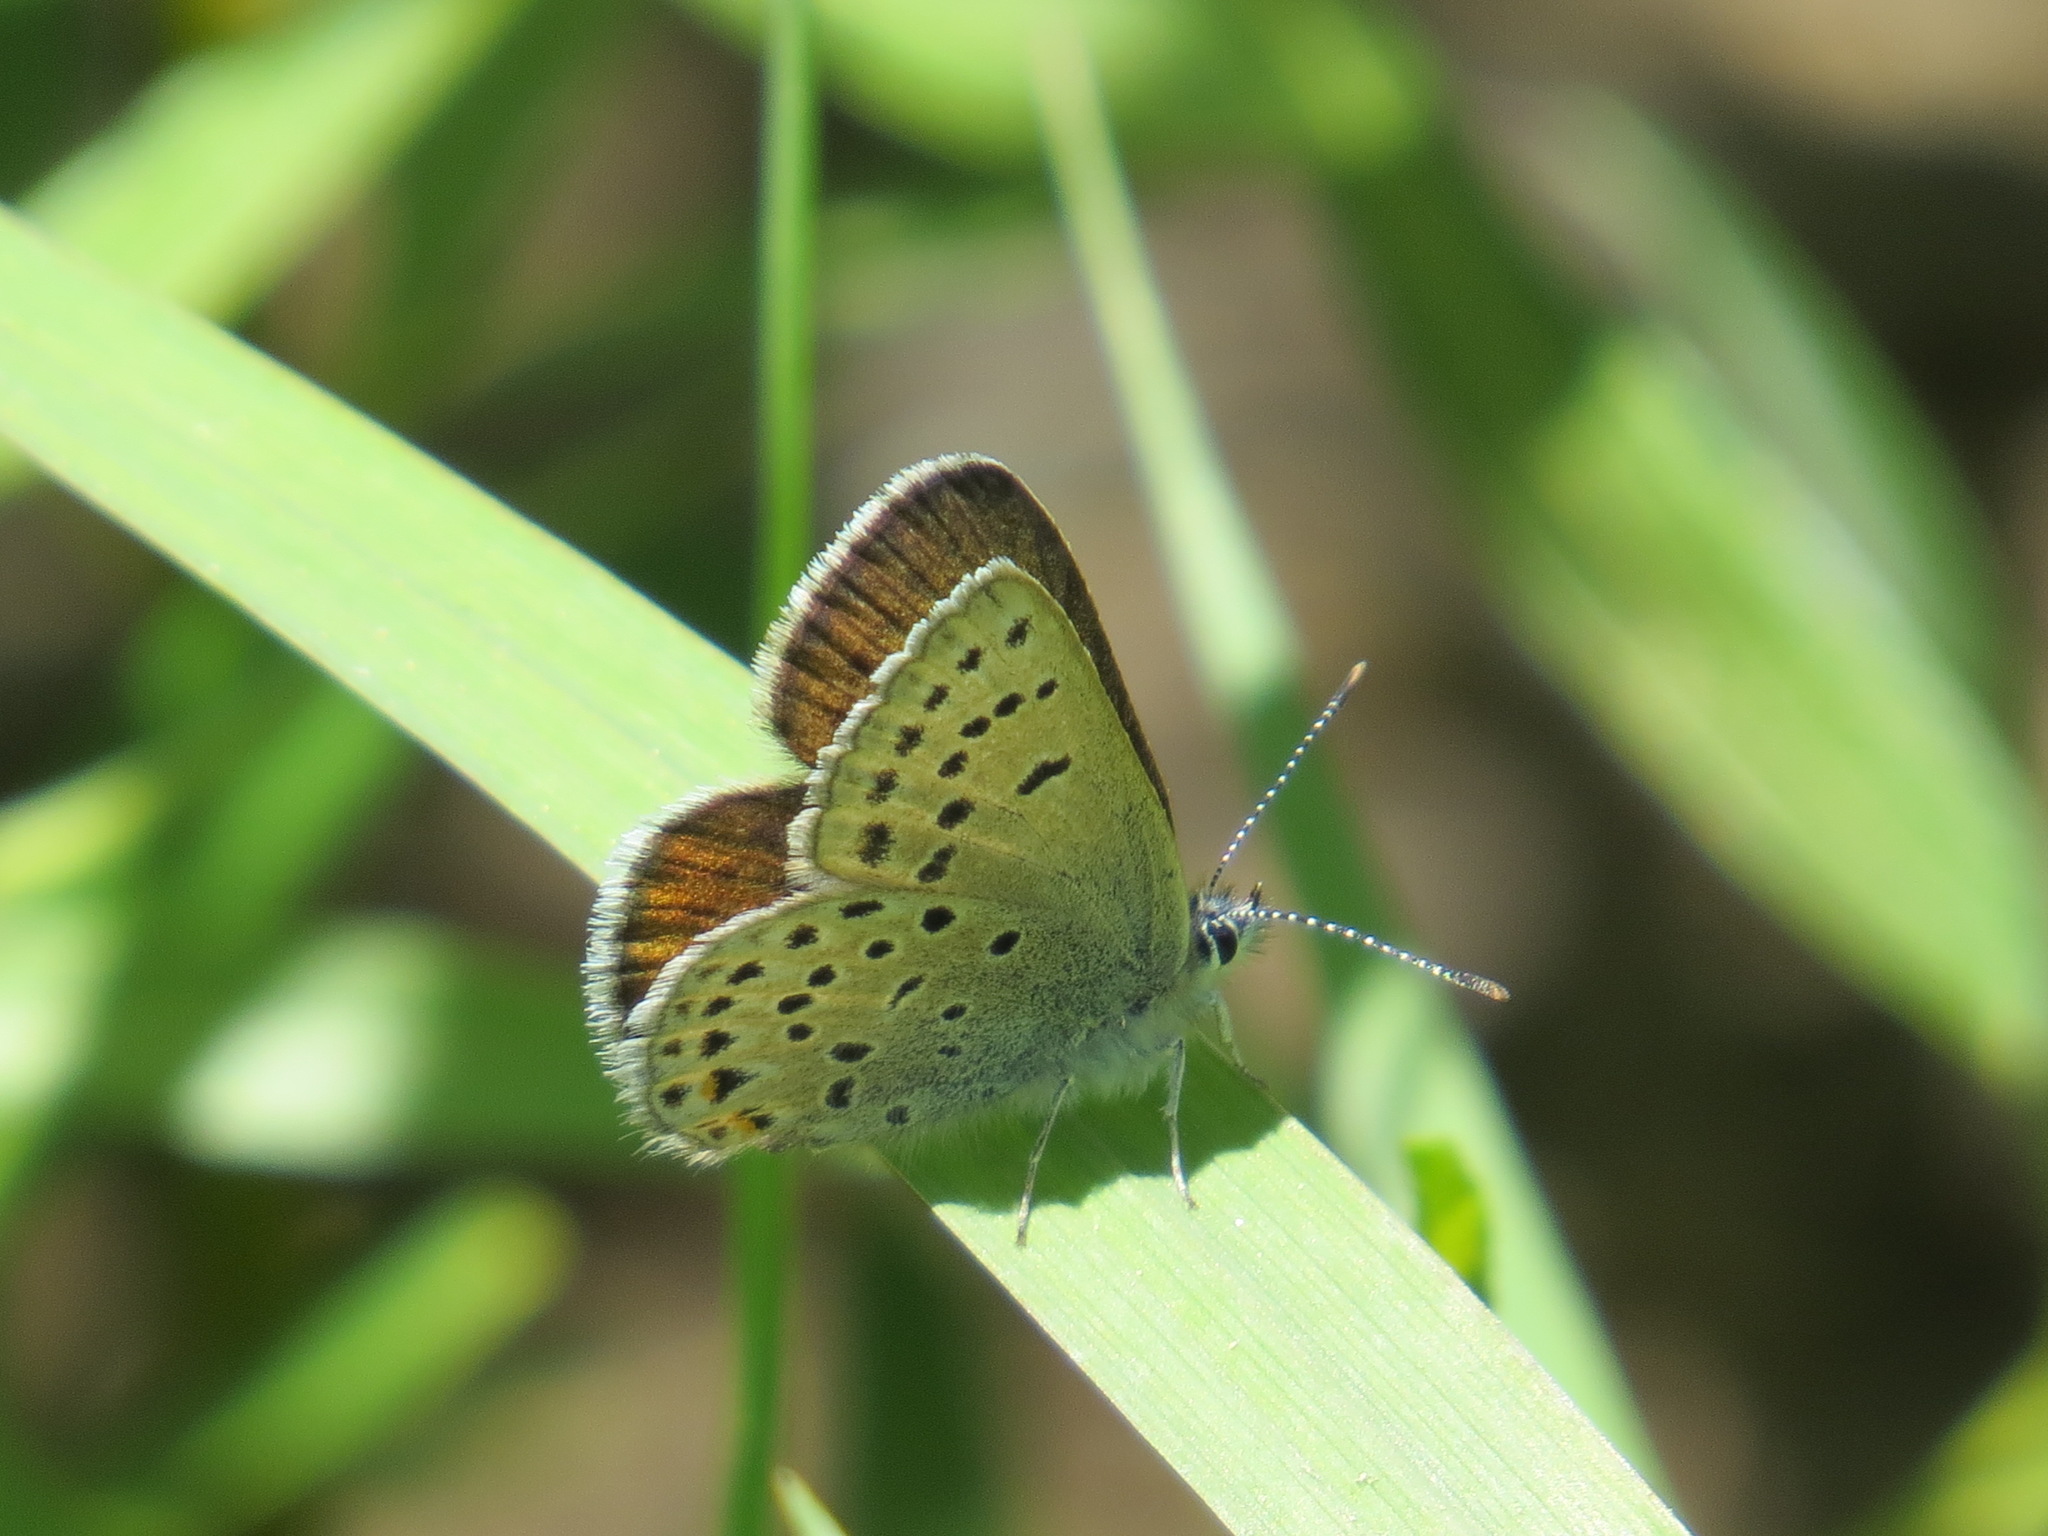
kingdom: Animalia
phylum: Arthropoda
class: Insecta
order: Lepidoptera
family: Lycaenidae
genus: Icaricia
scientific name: Icaricia saepiolus
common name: Greenish blue
